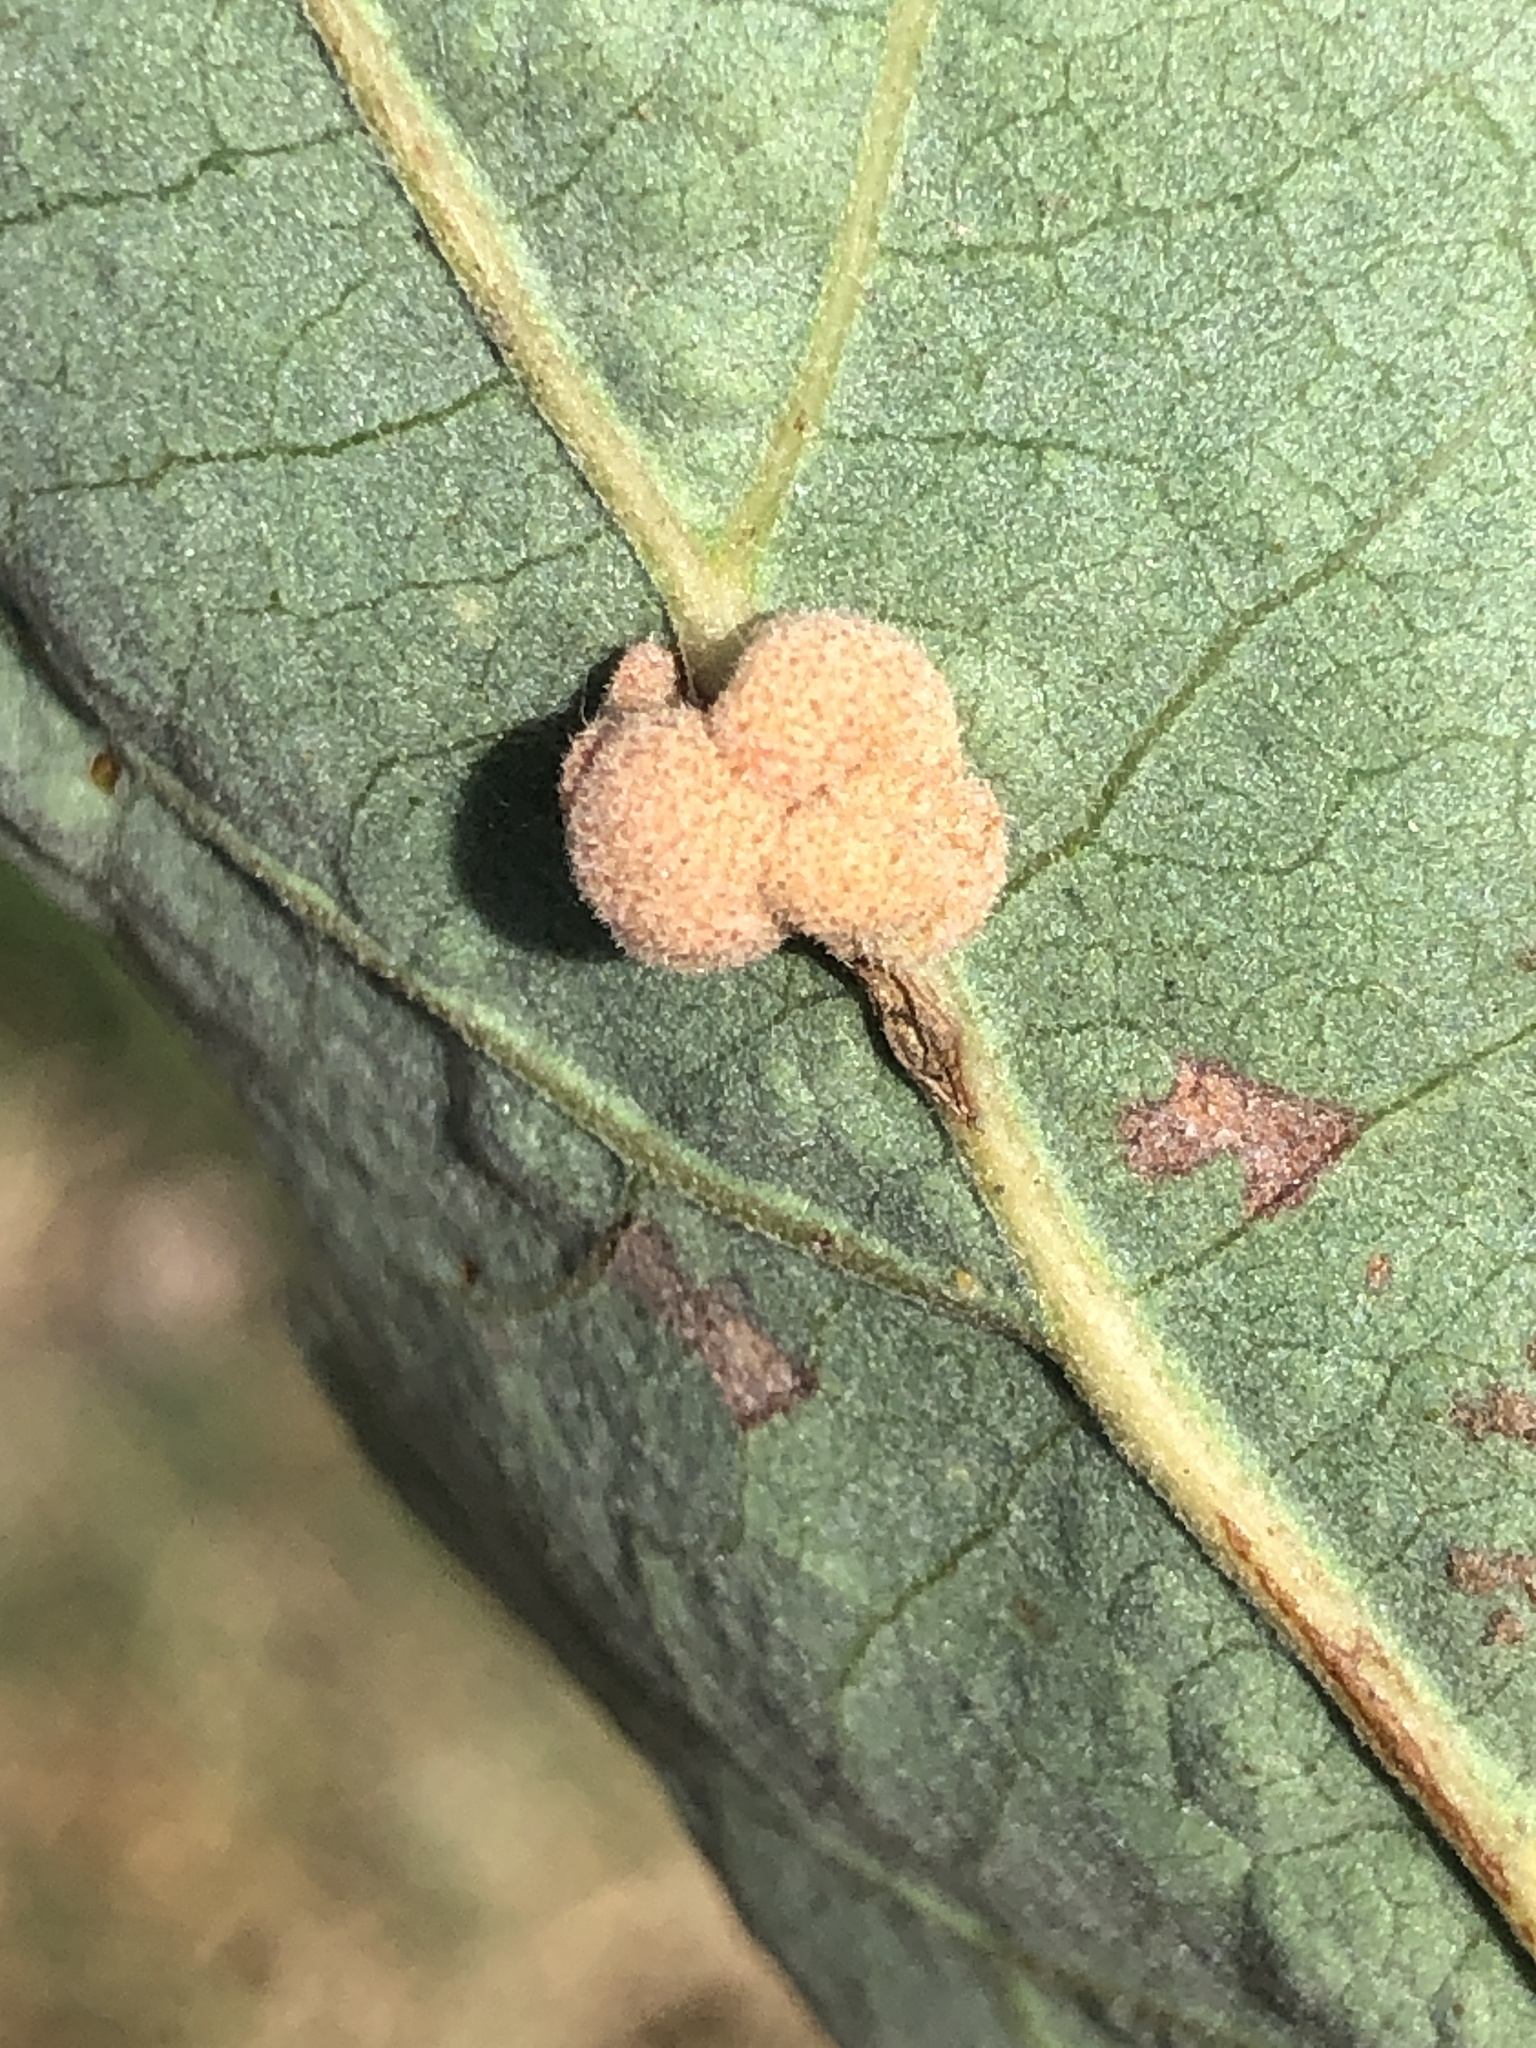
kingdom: Animalia
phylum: Arthropoda
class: Insecta
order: Hymenoptera
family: Cynipidae
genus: Andricus
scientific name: Andricus
